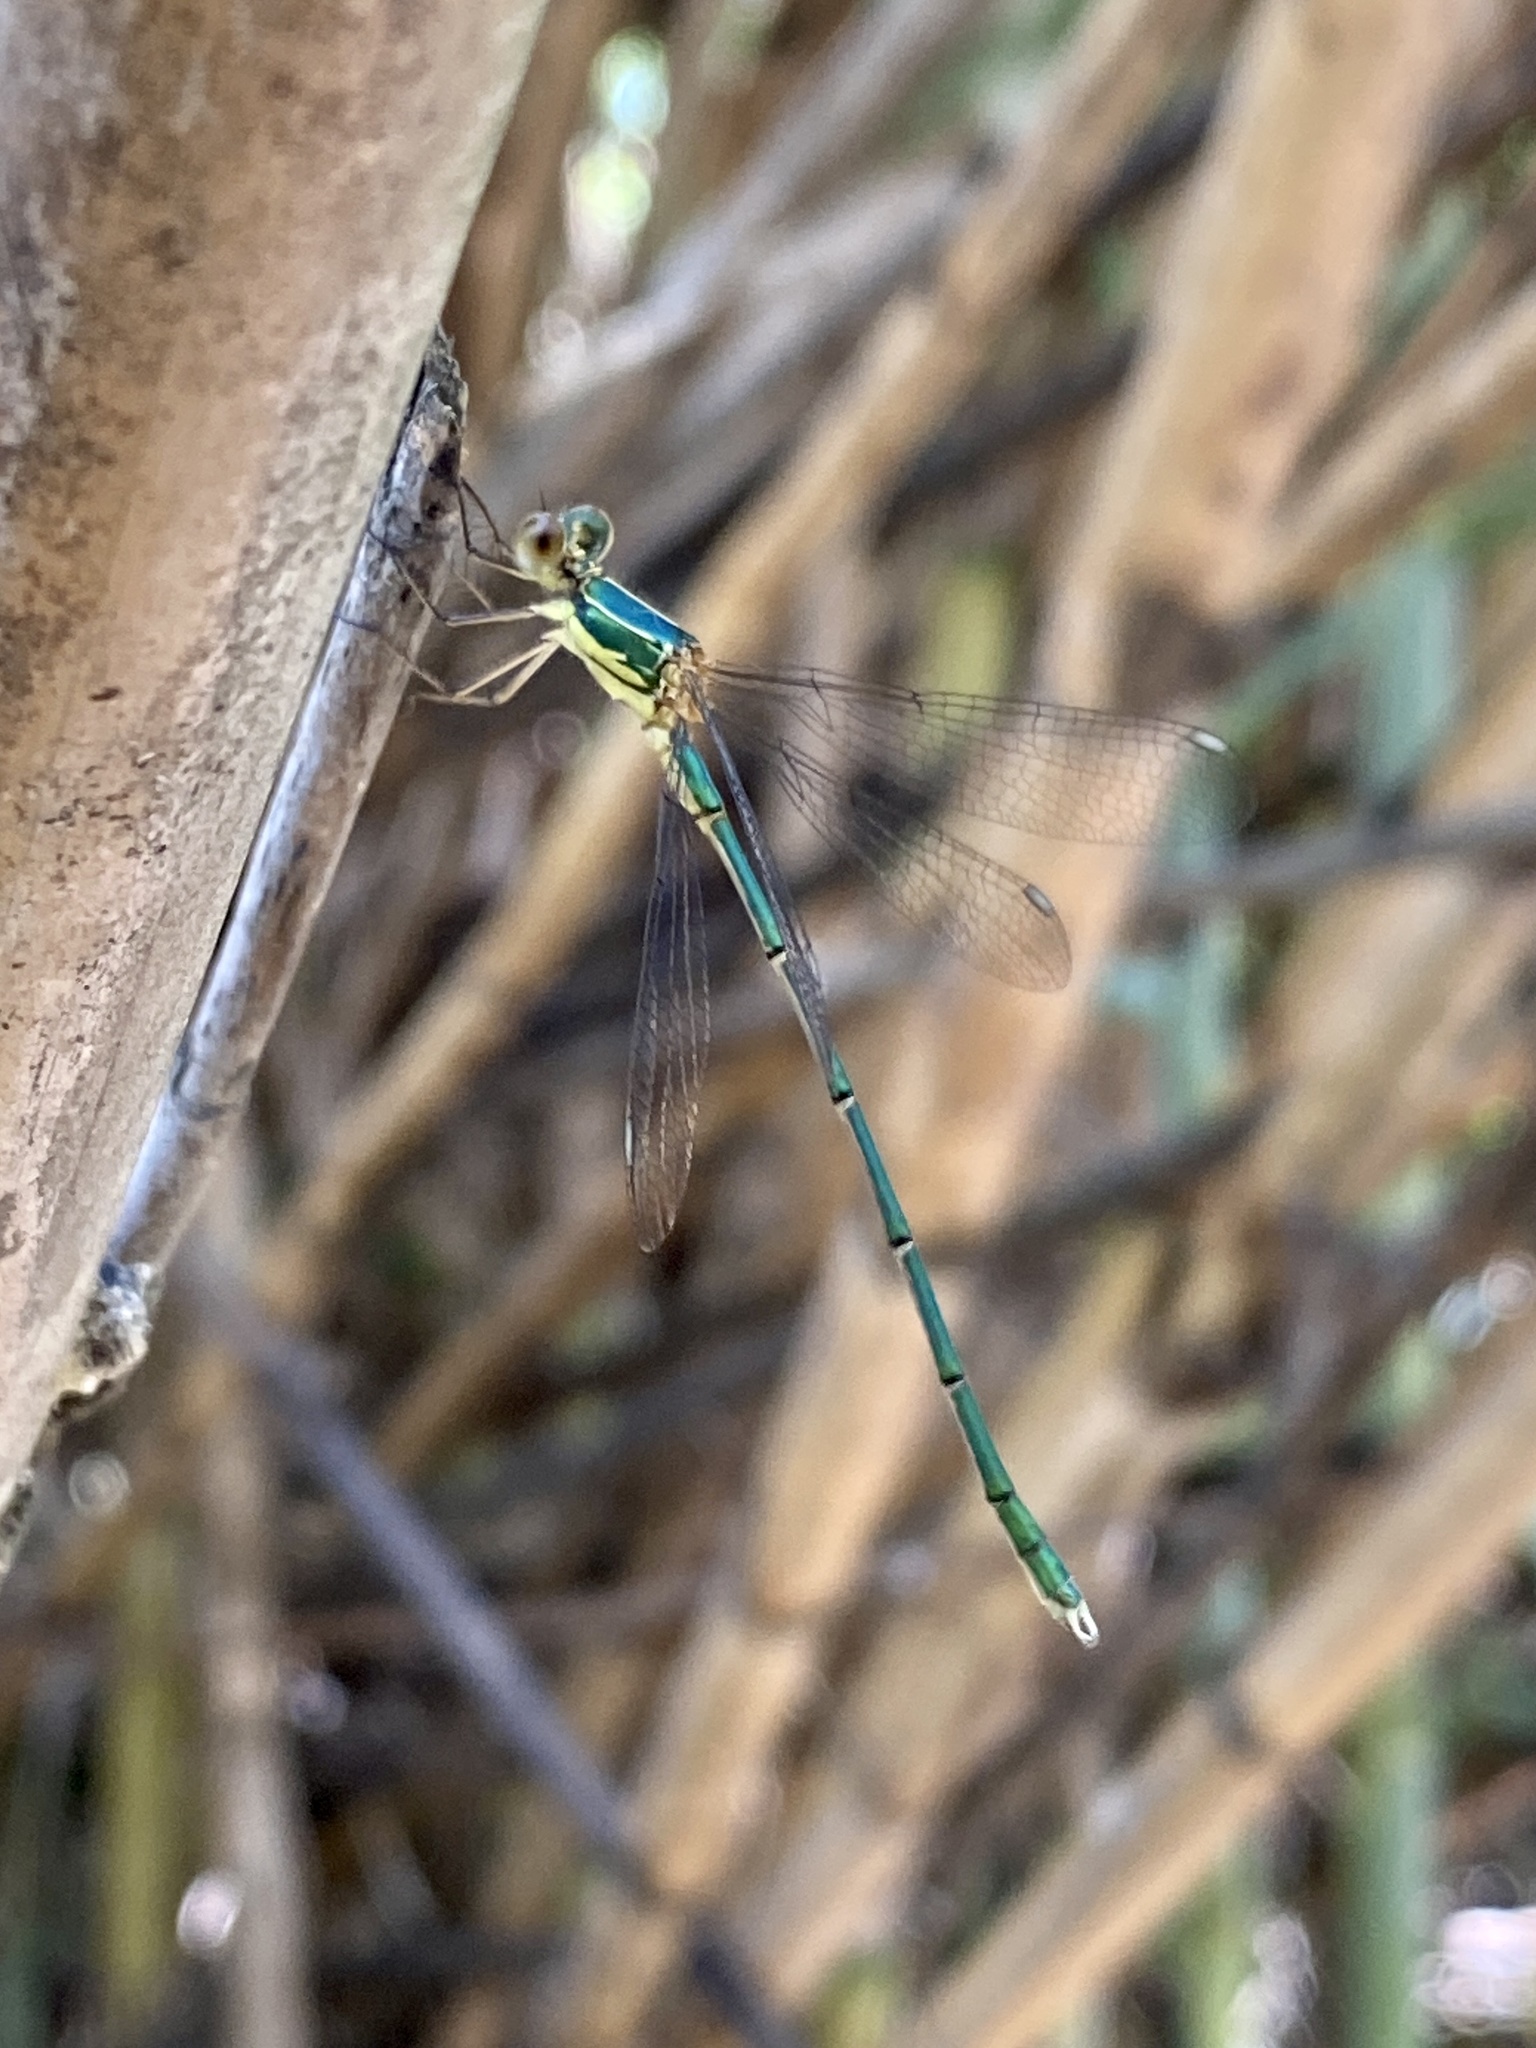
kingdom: Animalia
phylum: Arthropoda
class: Insecta
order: Odonata
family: Lestidae
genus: Chalcolestes
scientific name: Chalcolestes viridis
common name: Green emerald damselfly
